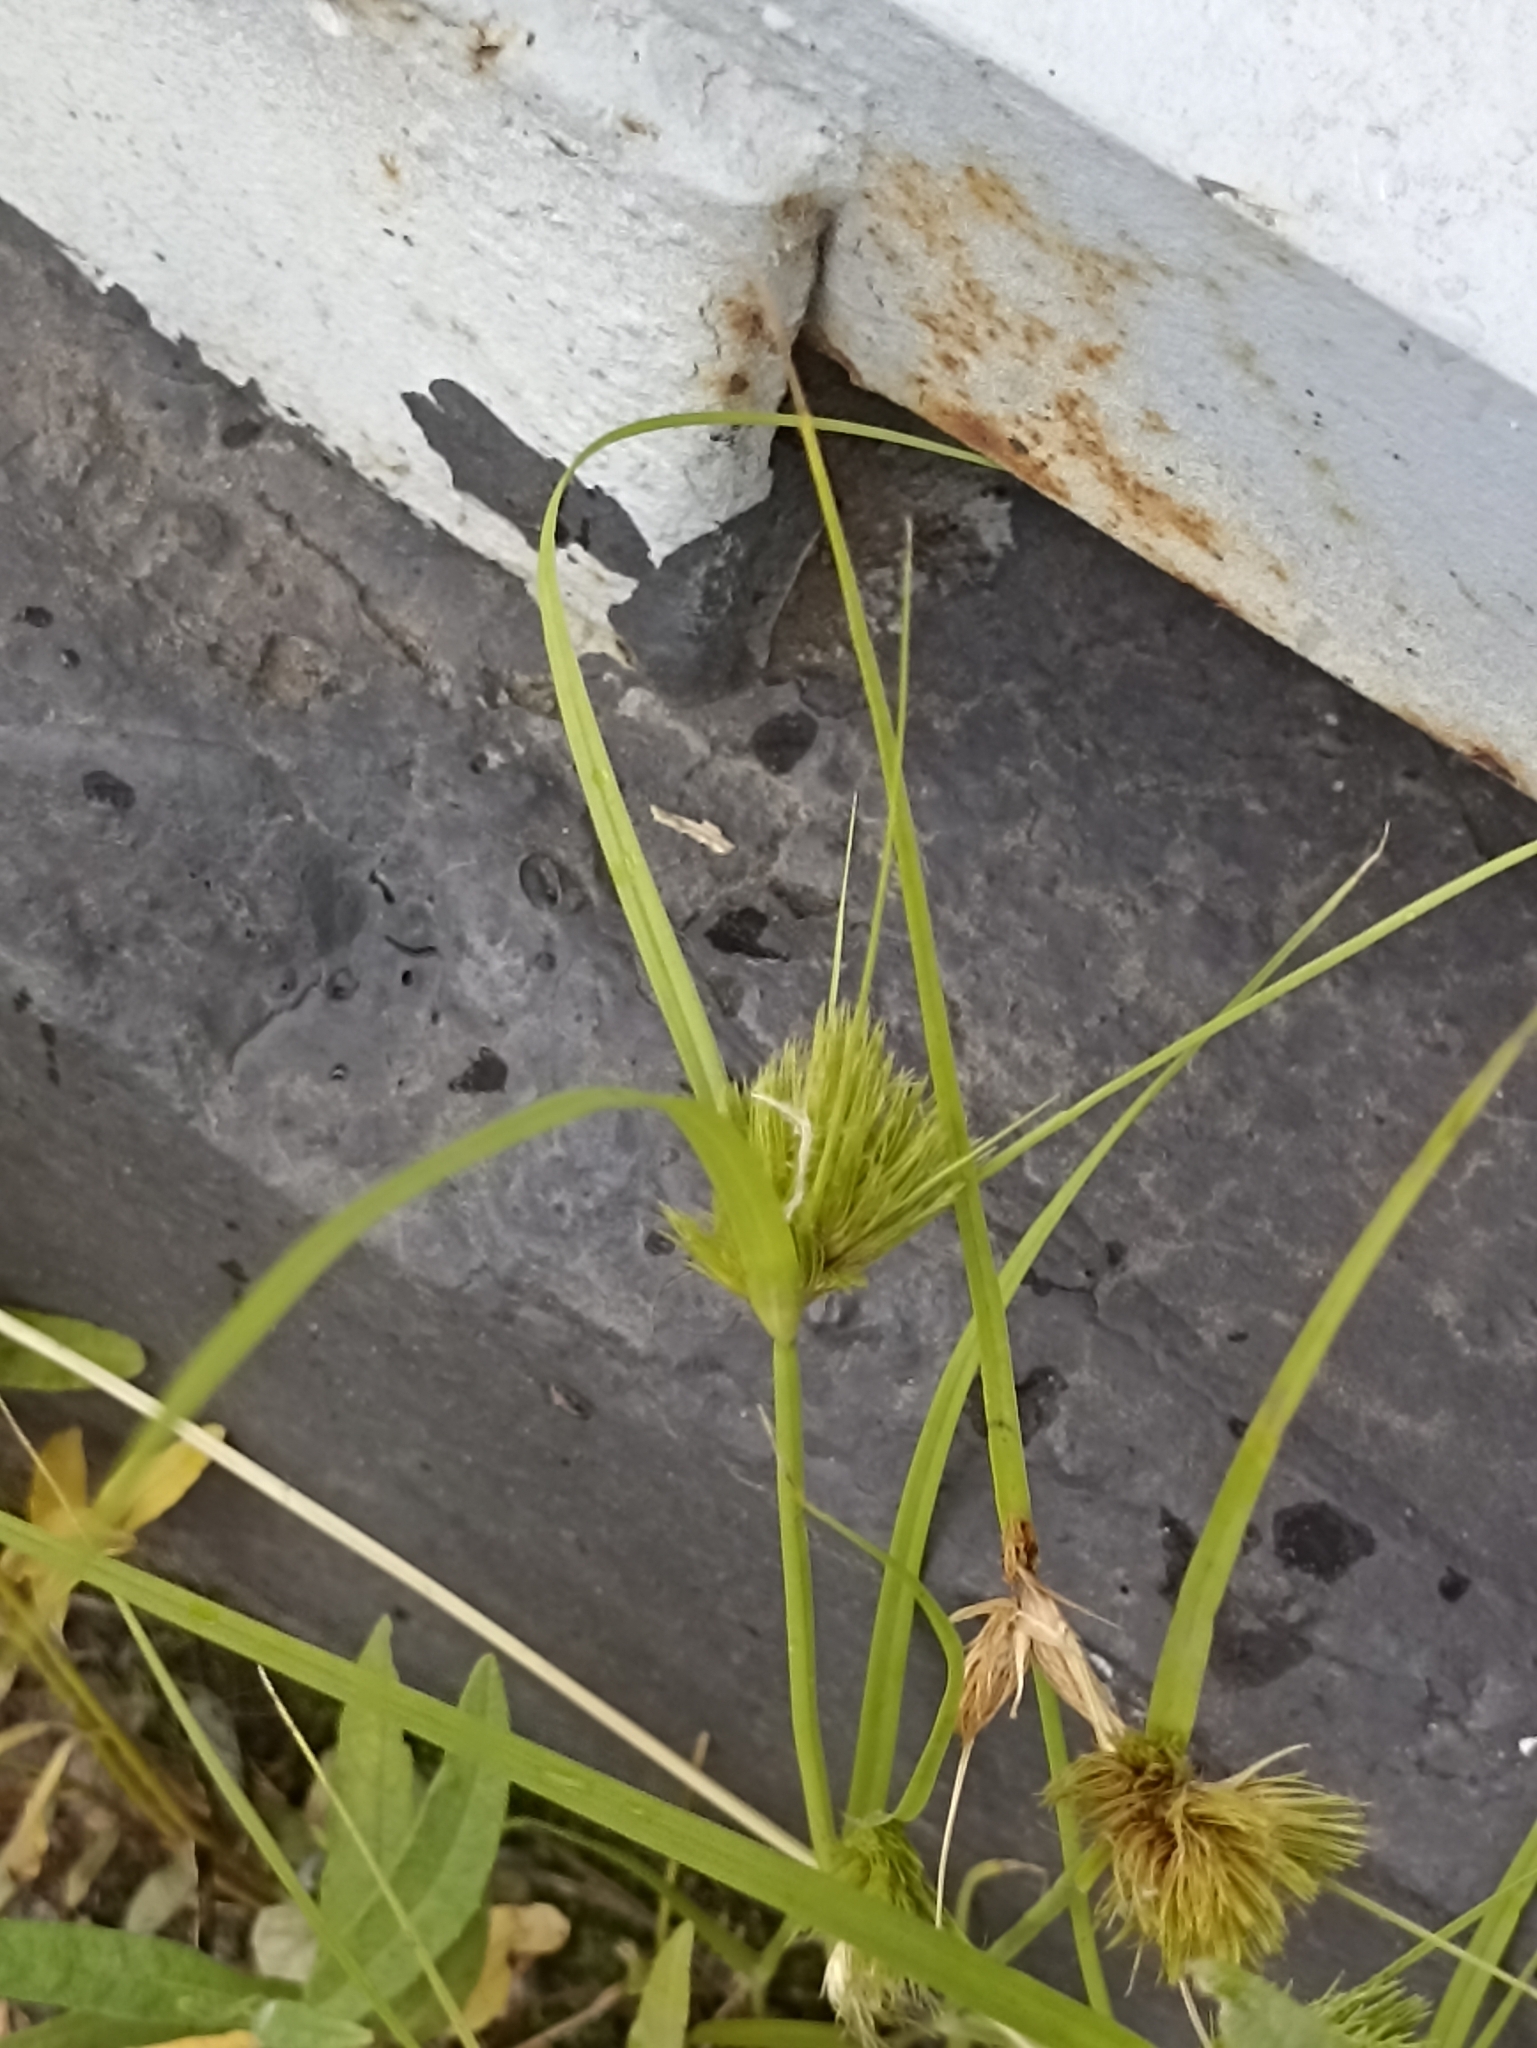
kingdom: Plantae
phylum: Tracheophyta
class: Liliopsida
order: Poales
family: Cyperaceae
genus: Carex
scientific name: Carex bohemica
